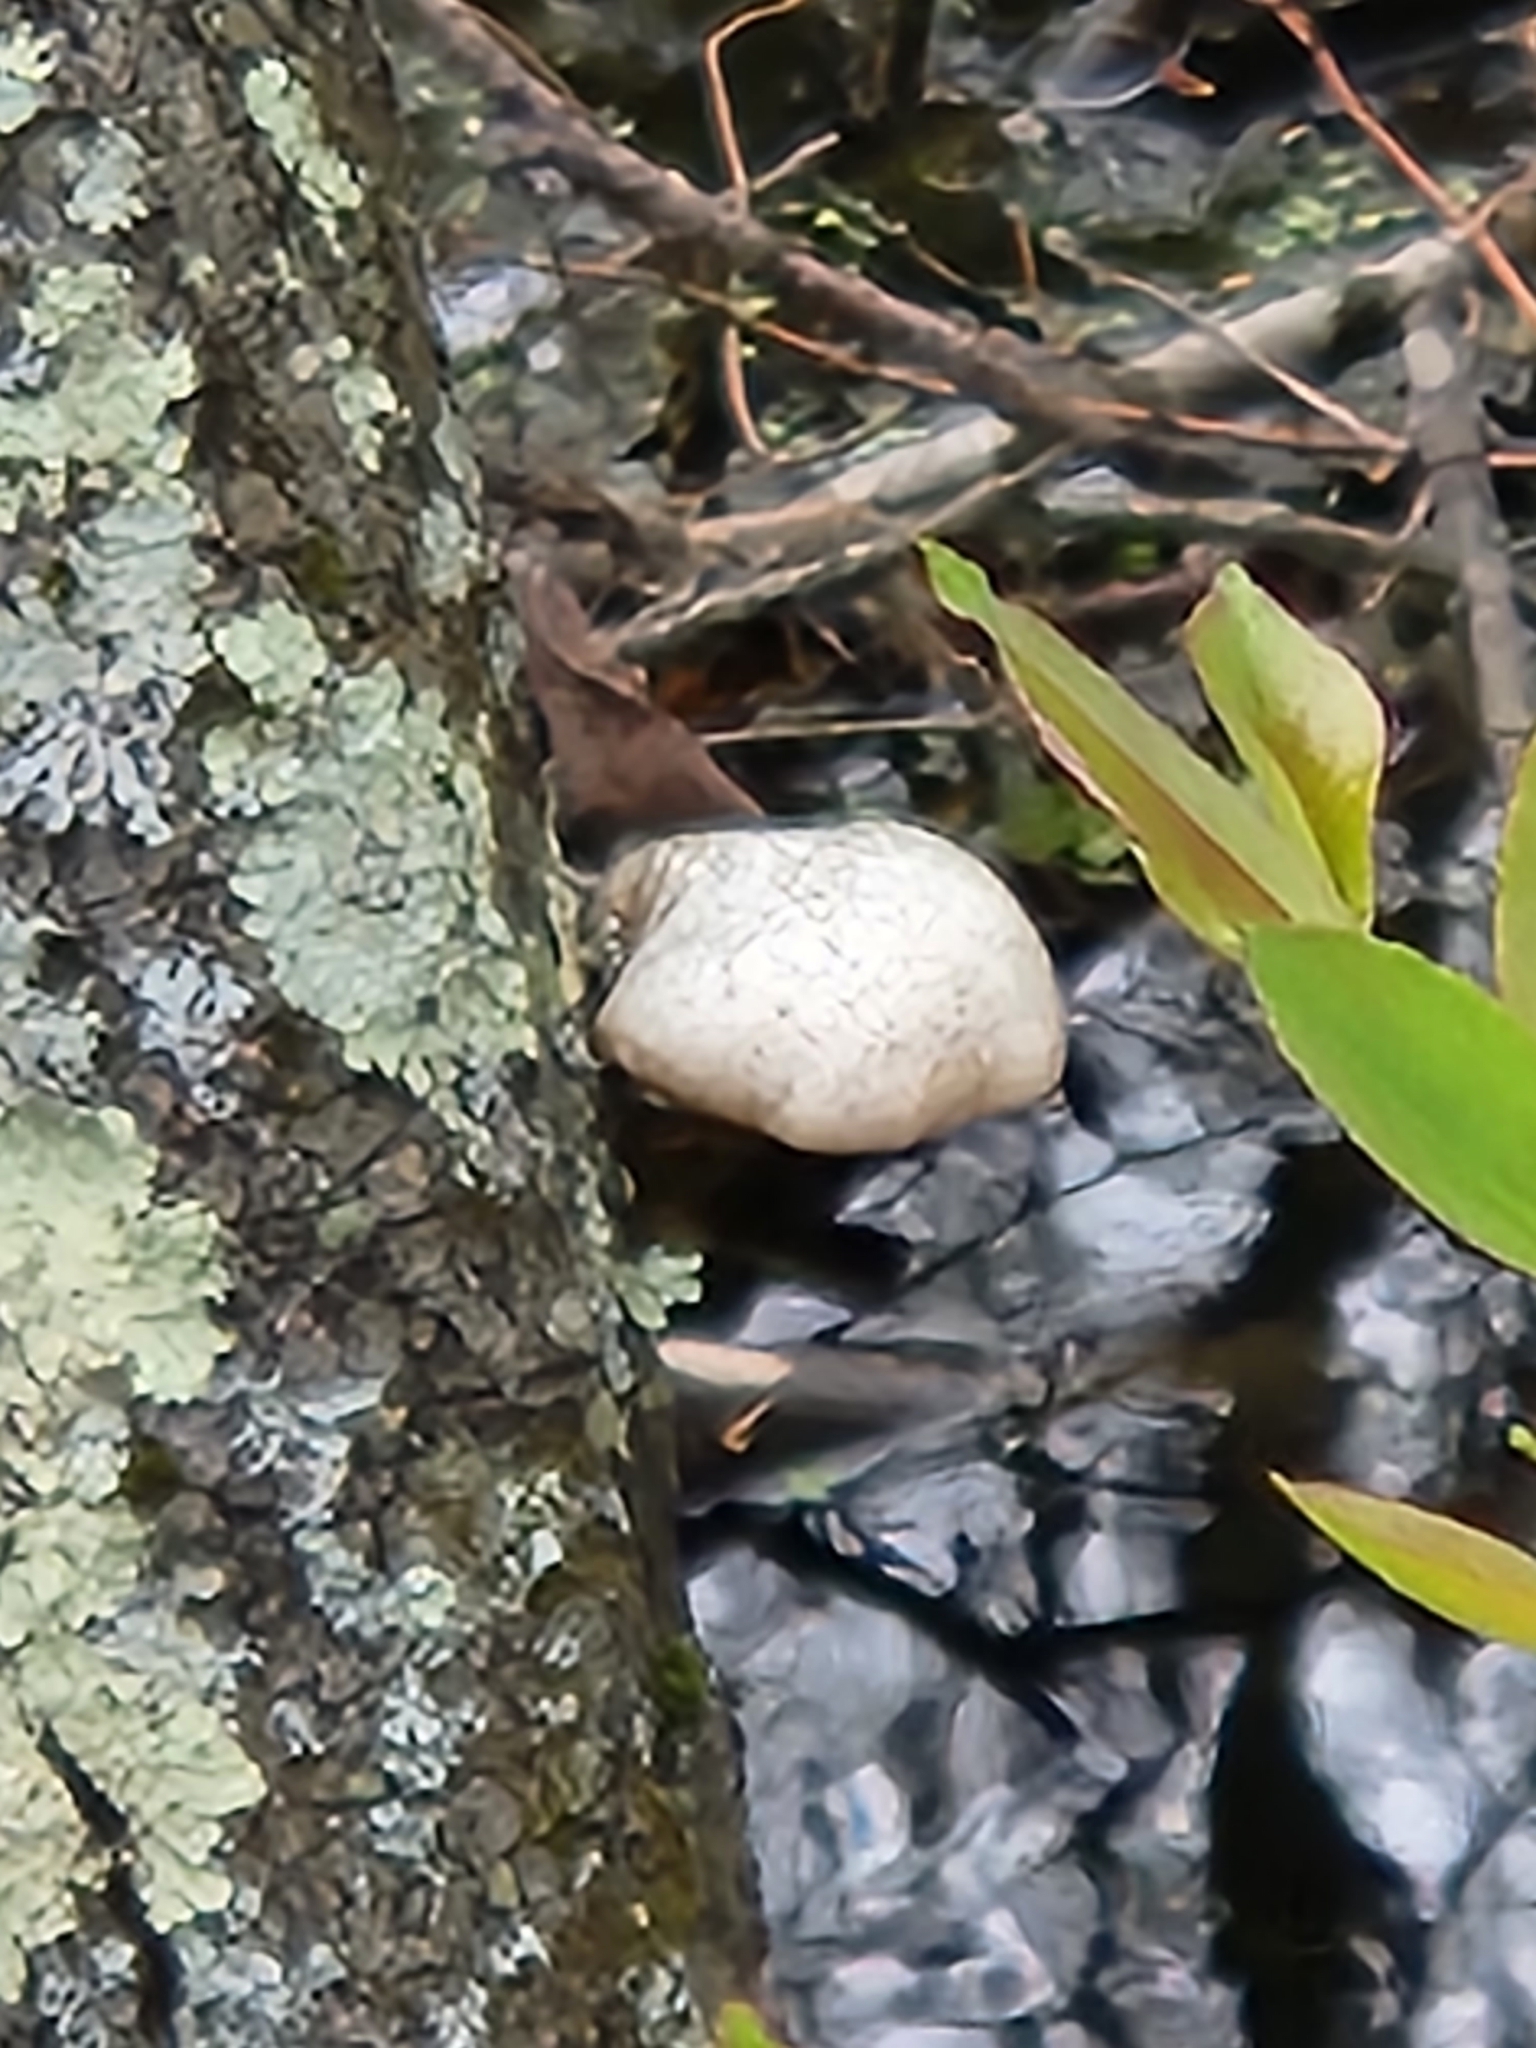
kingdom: Fungi
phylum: Basidiomycota
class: Agaricomycetes
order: Polyporales
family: Fomitopsidaceae
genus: Fomitopsis
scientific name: Fomitopsis betulina
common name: Birch polypore
